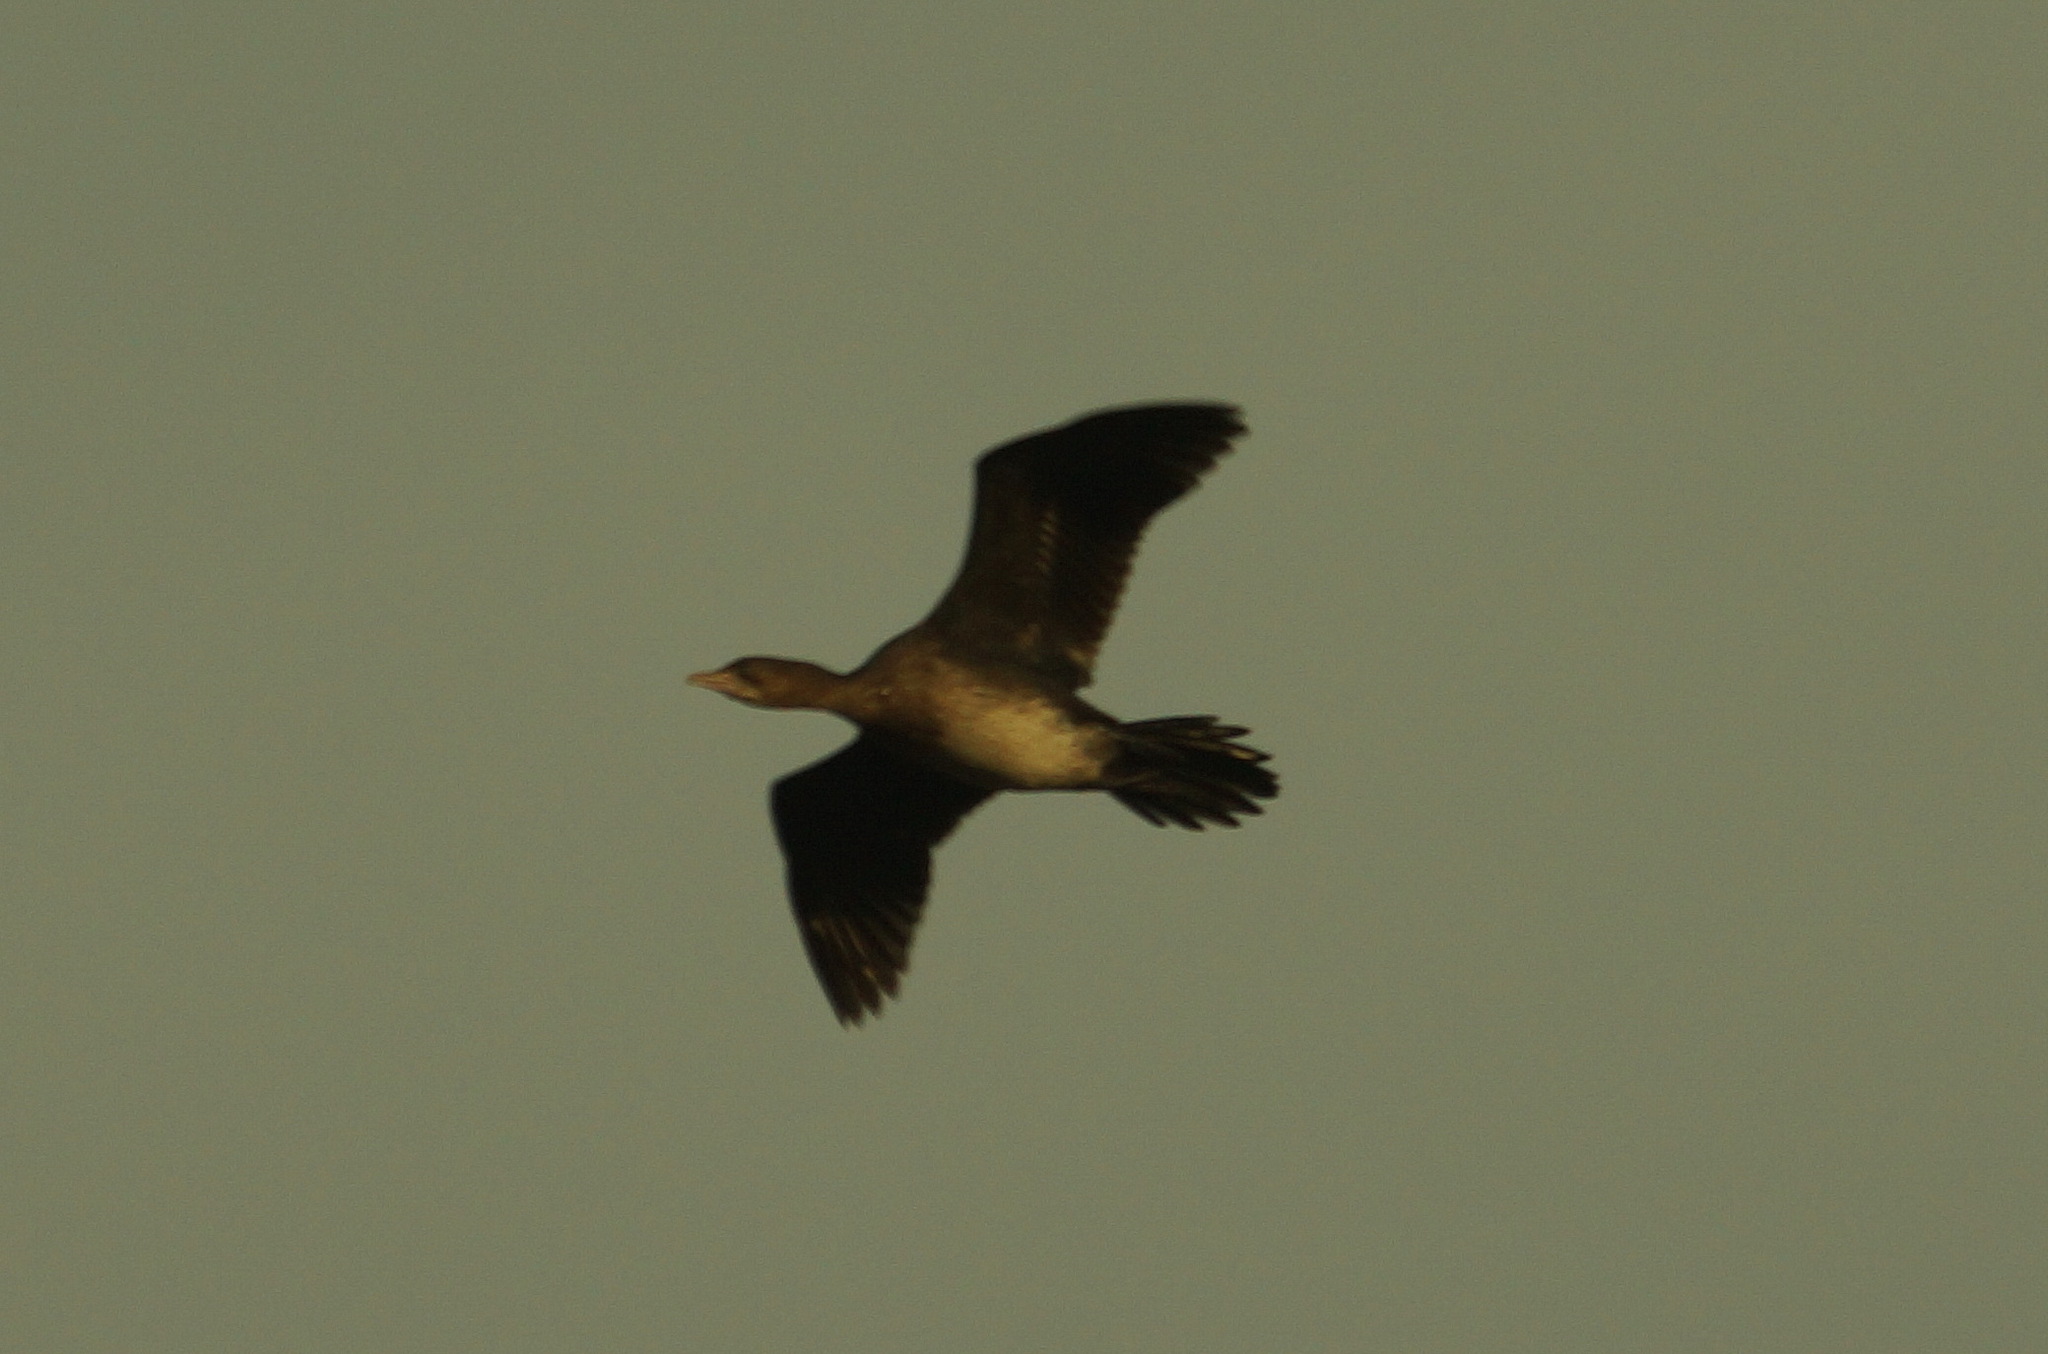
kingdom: Animalia
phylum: Chordata
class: Aves
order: Suliformes
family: Phalacrocoracidae
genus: Microcarbo
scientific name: Microcarbo pygmaeus
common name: Pygmy cormorant
